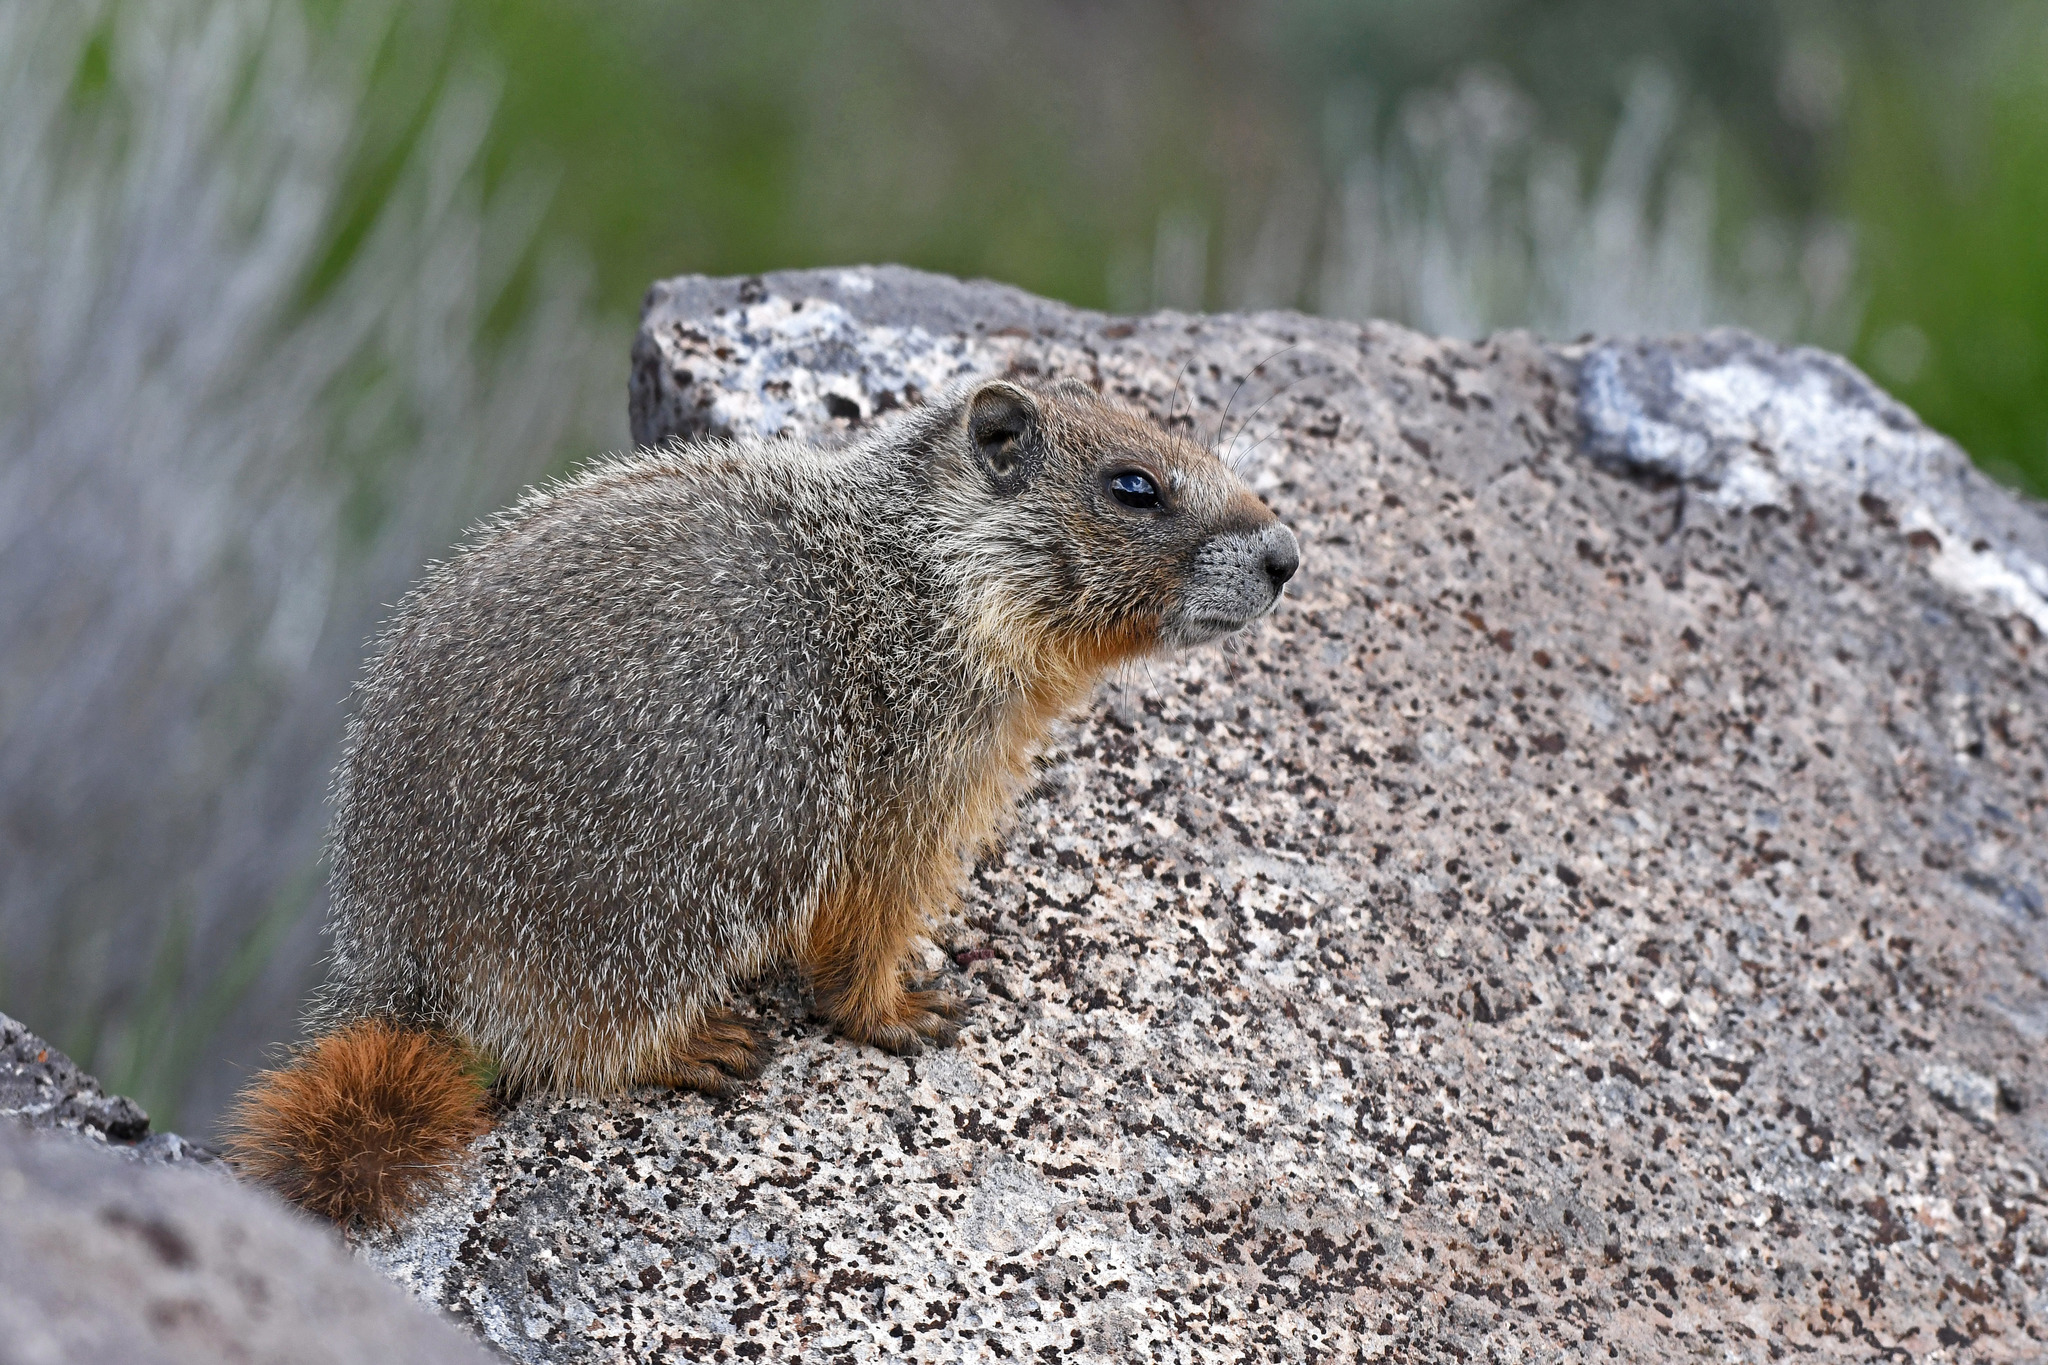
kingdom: Animalia
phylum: Chordata
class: Mammalia
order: Rodentia
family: Sciuridae
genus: Marmota
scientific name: Marmota flaviventris
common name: Yellow-bellied marmot
